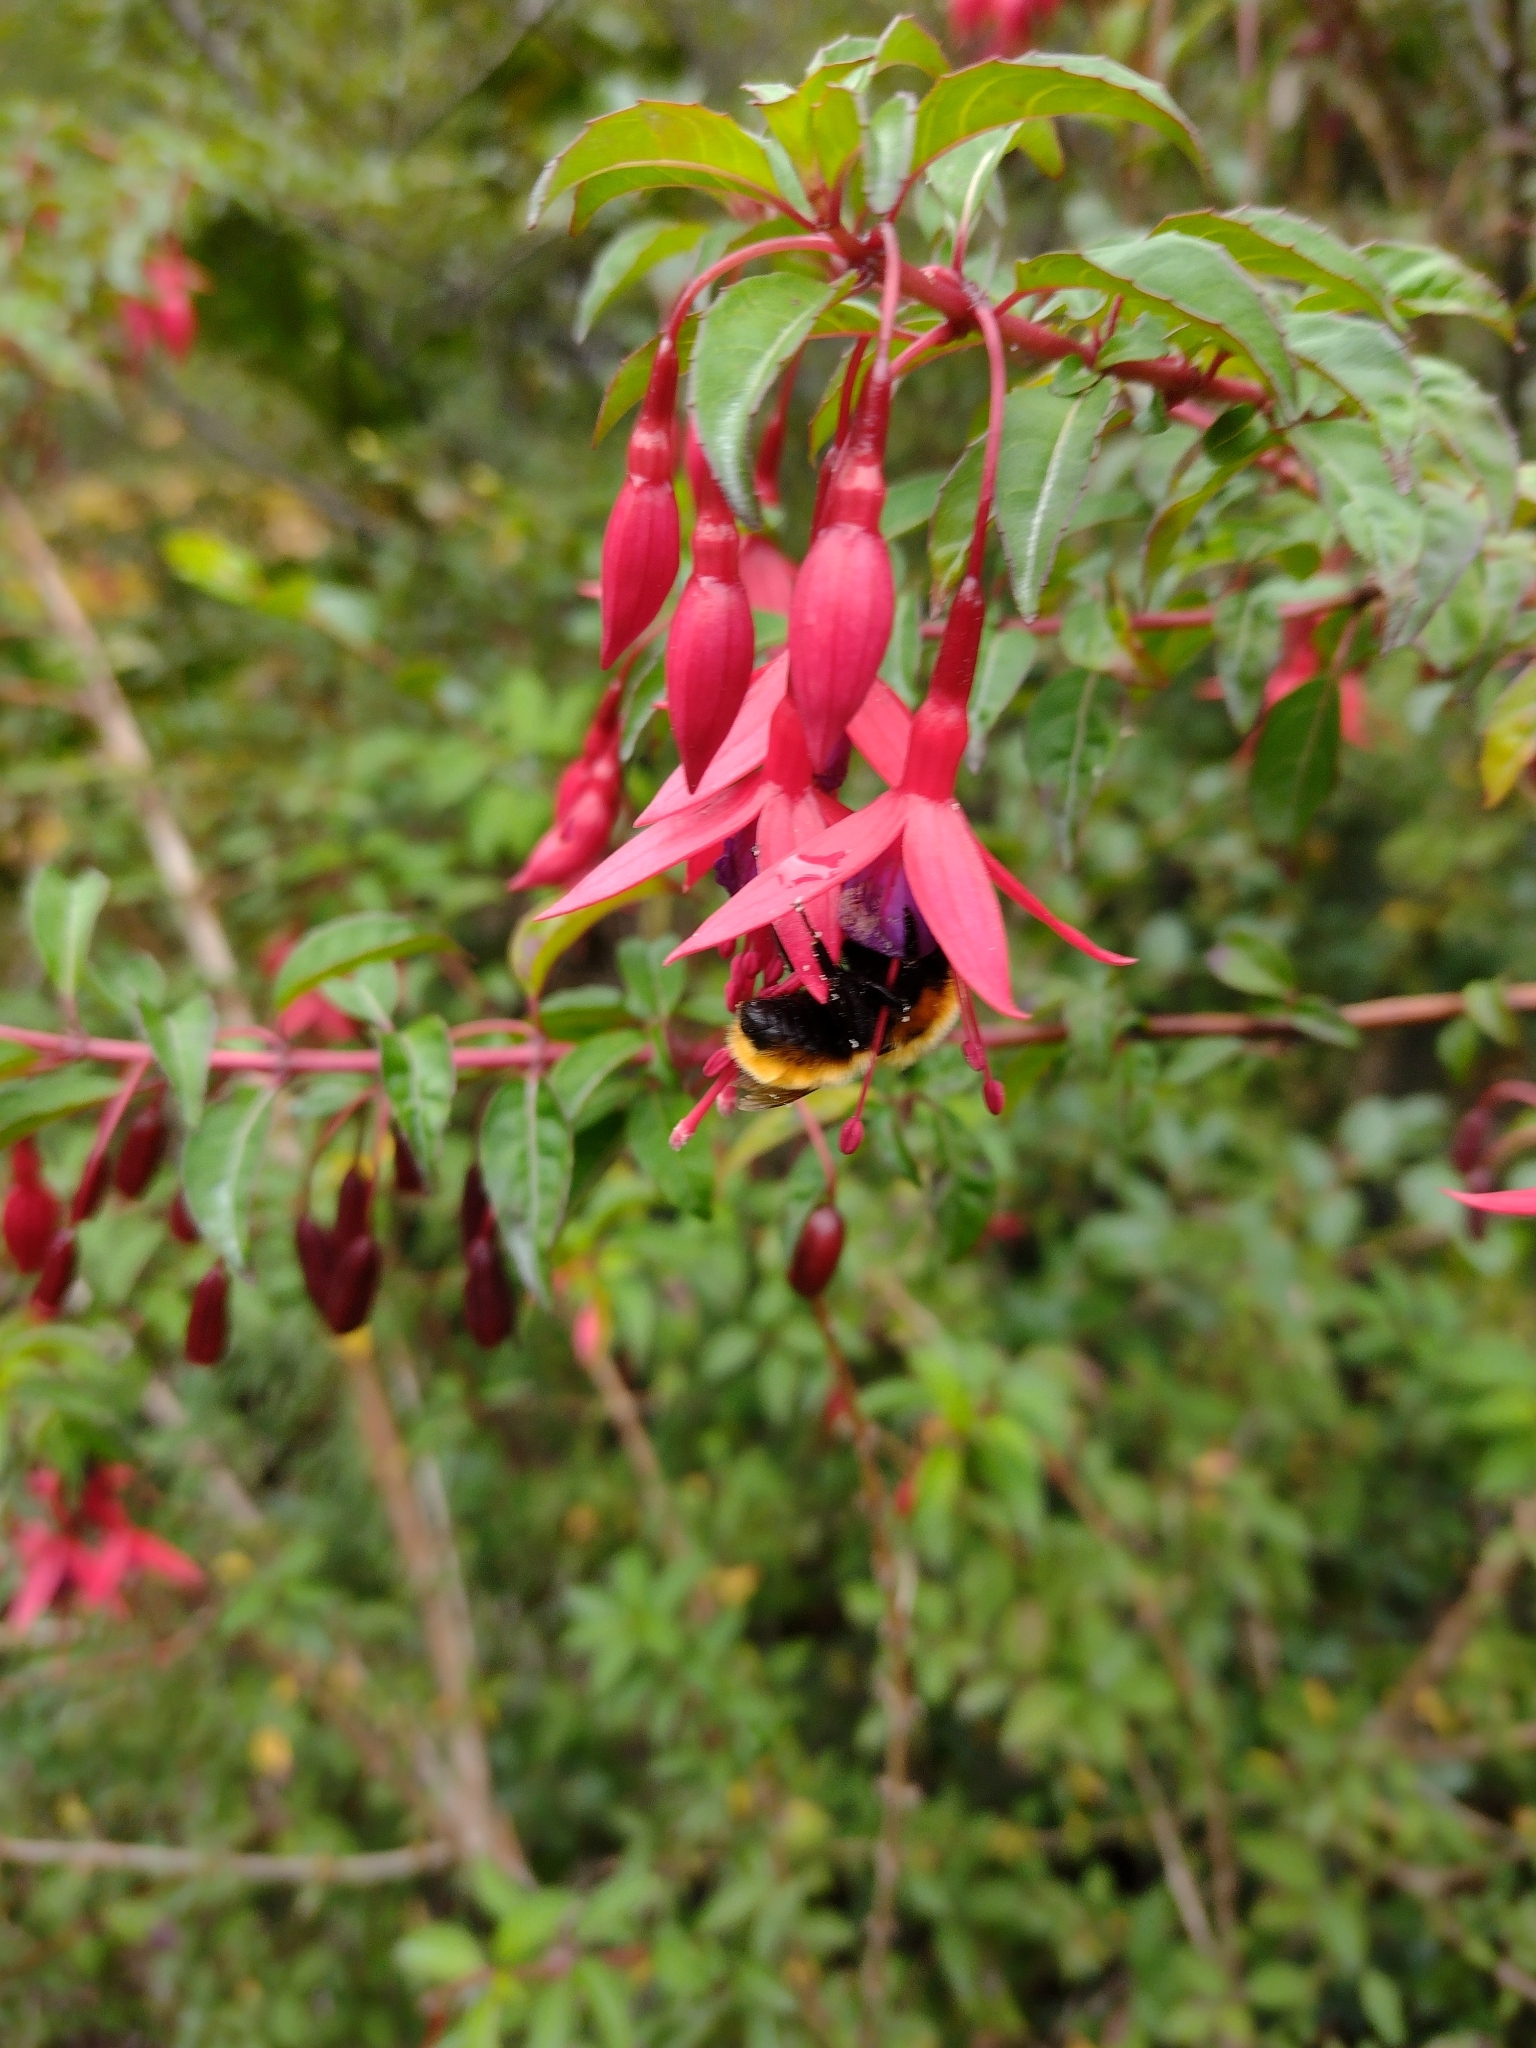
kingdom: Animalia
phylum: Arthropoda
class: Insecta
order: Hymenoptera
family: Apidae
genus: Bombus
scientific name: Bombus dahlbomii
